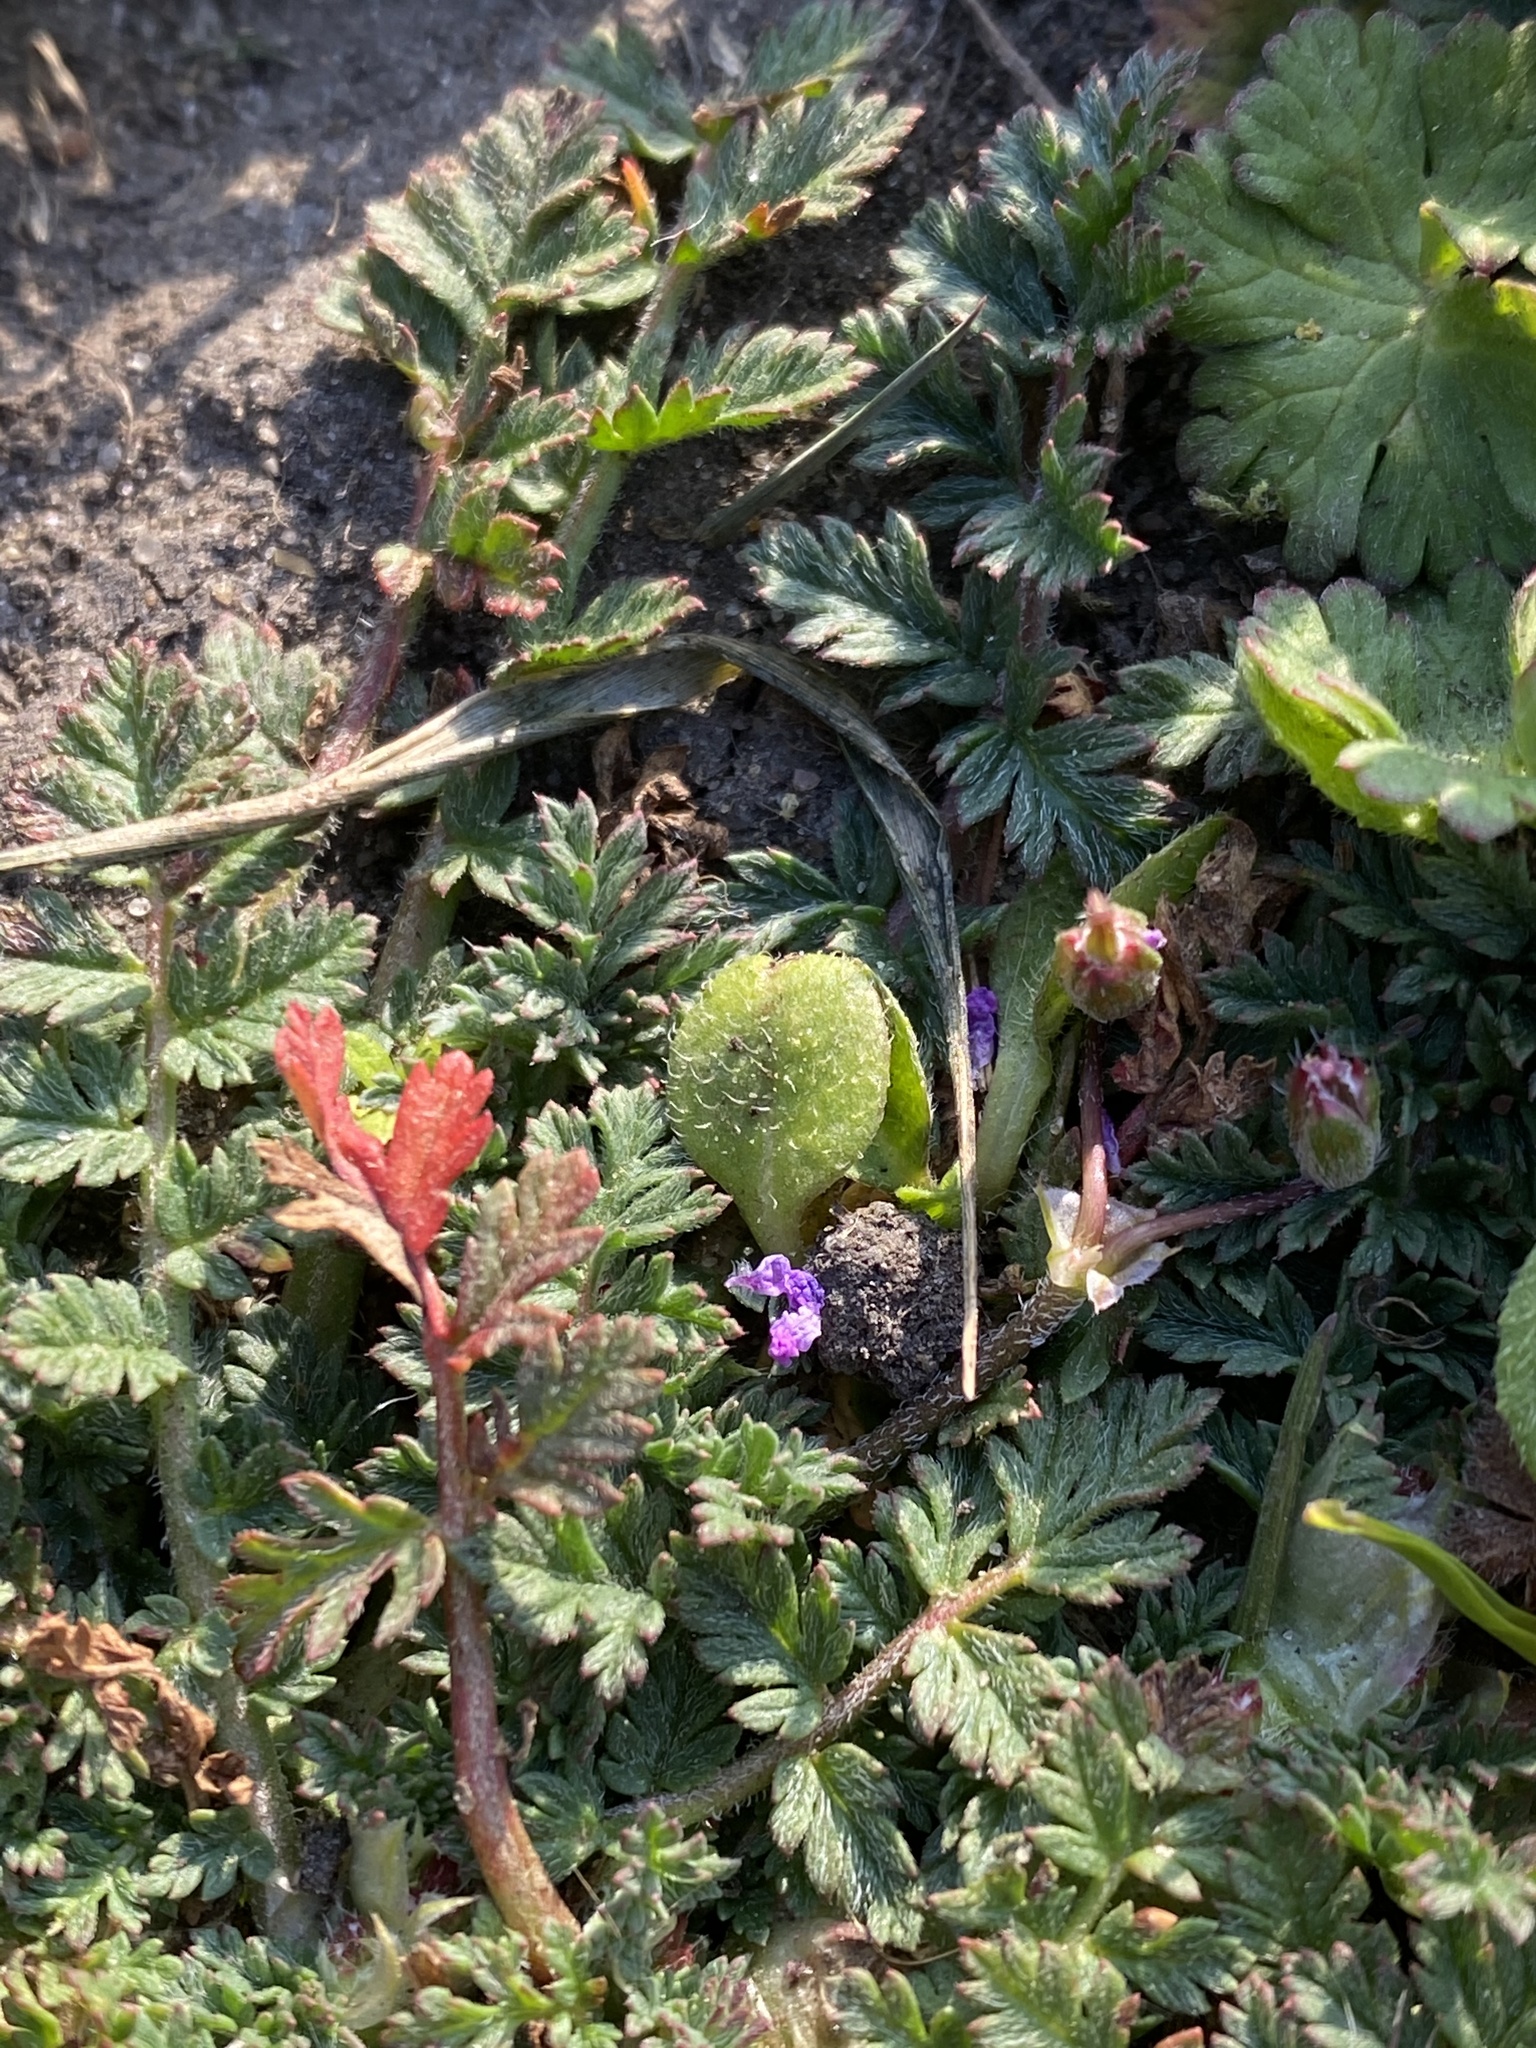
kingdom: Plantae
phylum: Tracheophyta
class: Magnoliopsida
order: Geraniales
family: Geraniaceae
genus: Erodium
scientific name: Erodium cicutarium
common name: Common stork's-bill
